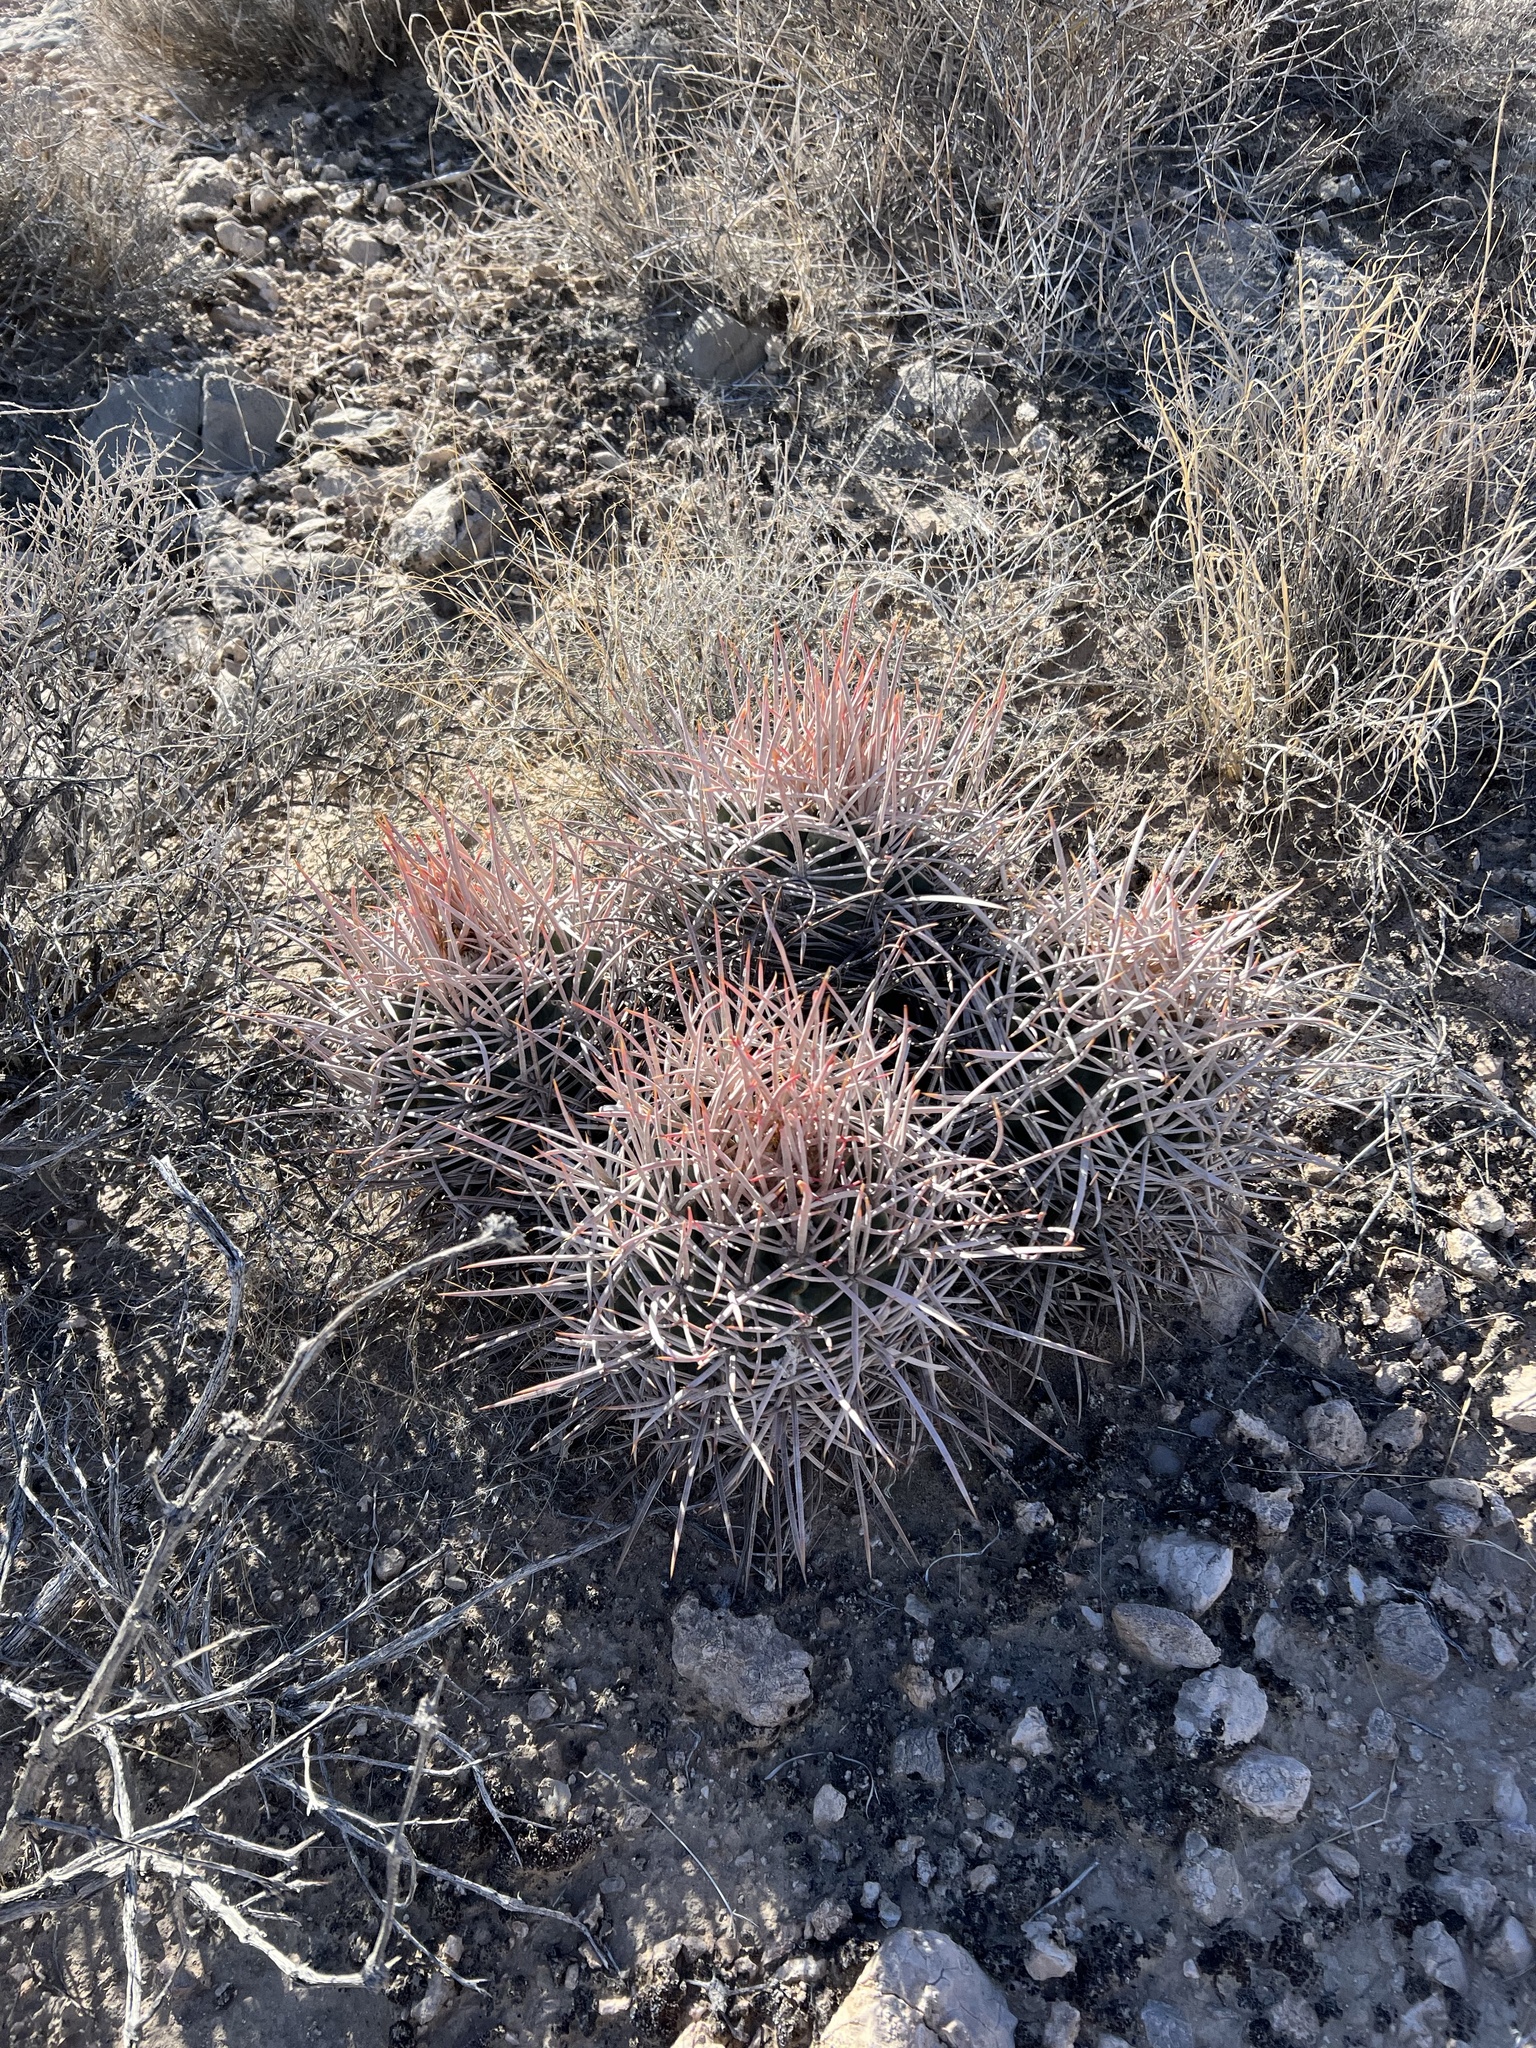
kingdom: Plantae
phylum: Tracheophyta
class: Magnoliopsida
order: Caryophyllales
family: Cactaceae
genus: Echinocactus
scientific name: Echinocactus polycephalus
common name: Cottontop cactus
